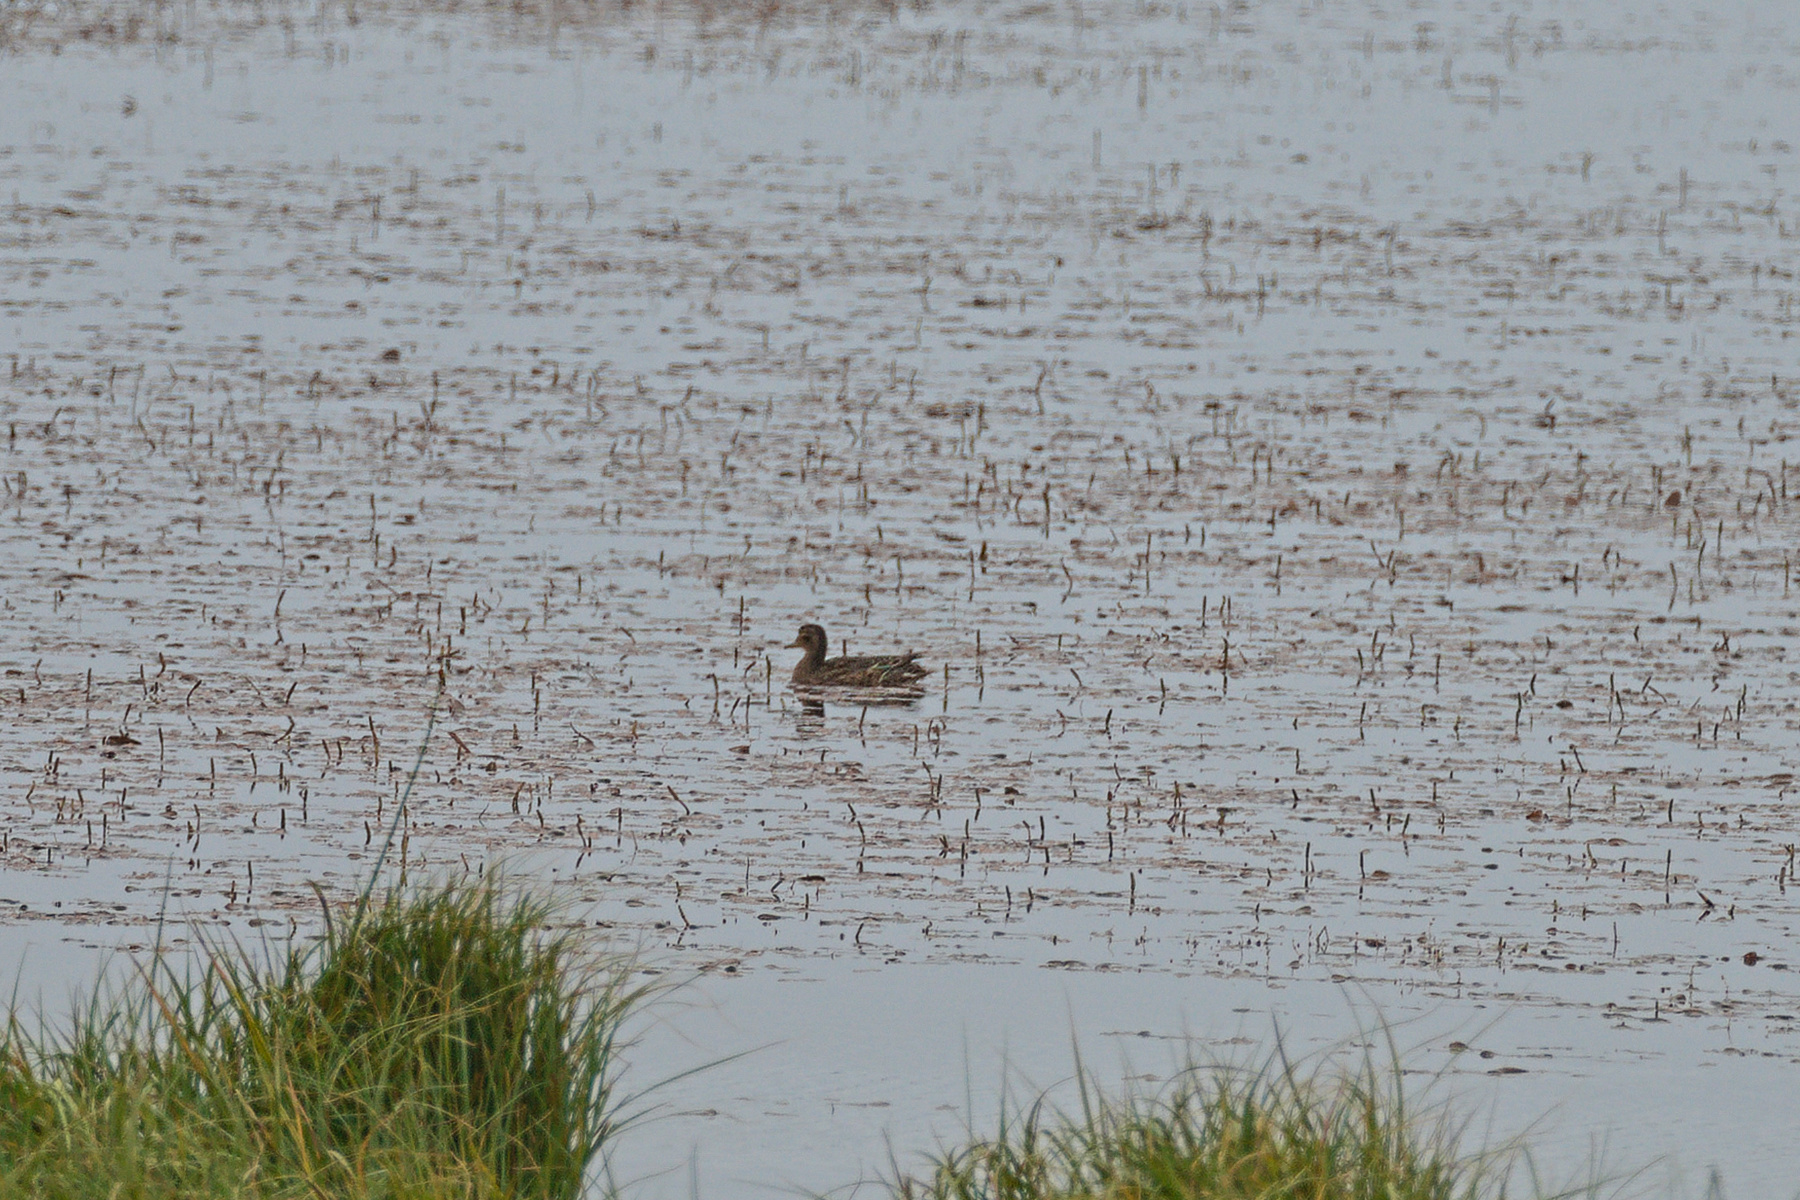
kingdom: Animalia
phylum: Chordata
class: Aves
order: Anseriformes
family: Anatidae
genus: Anas
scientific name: Anas crecca
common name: Eurasian teal
